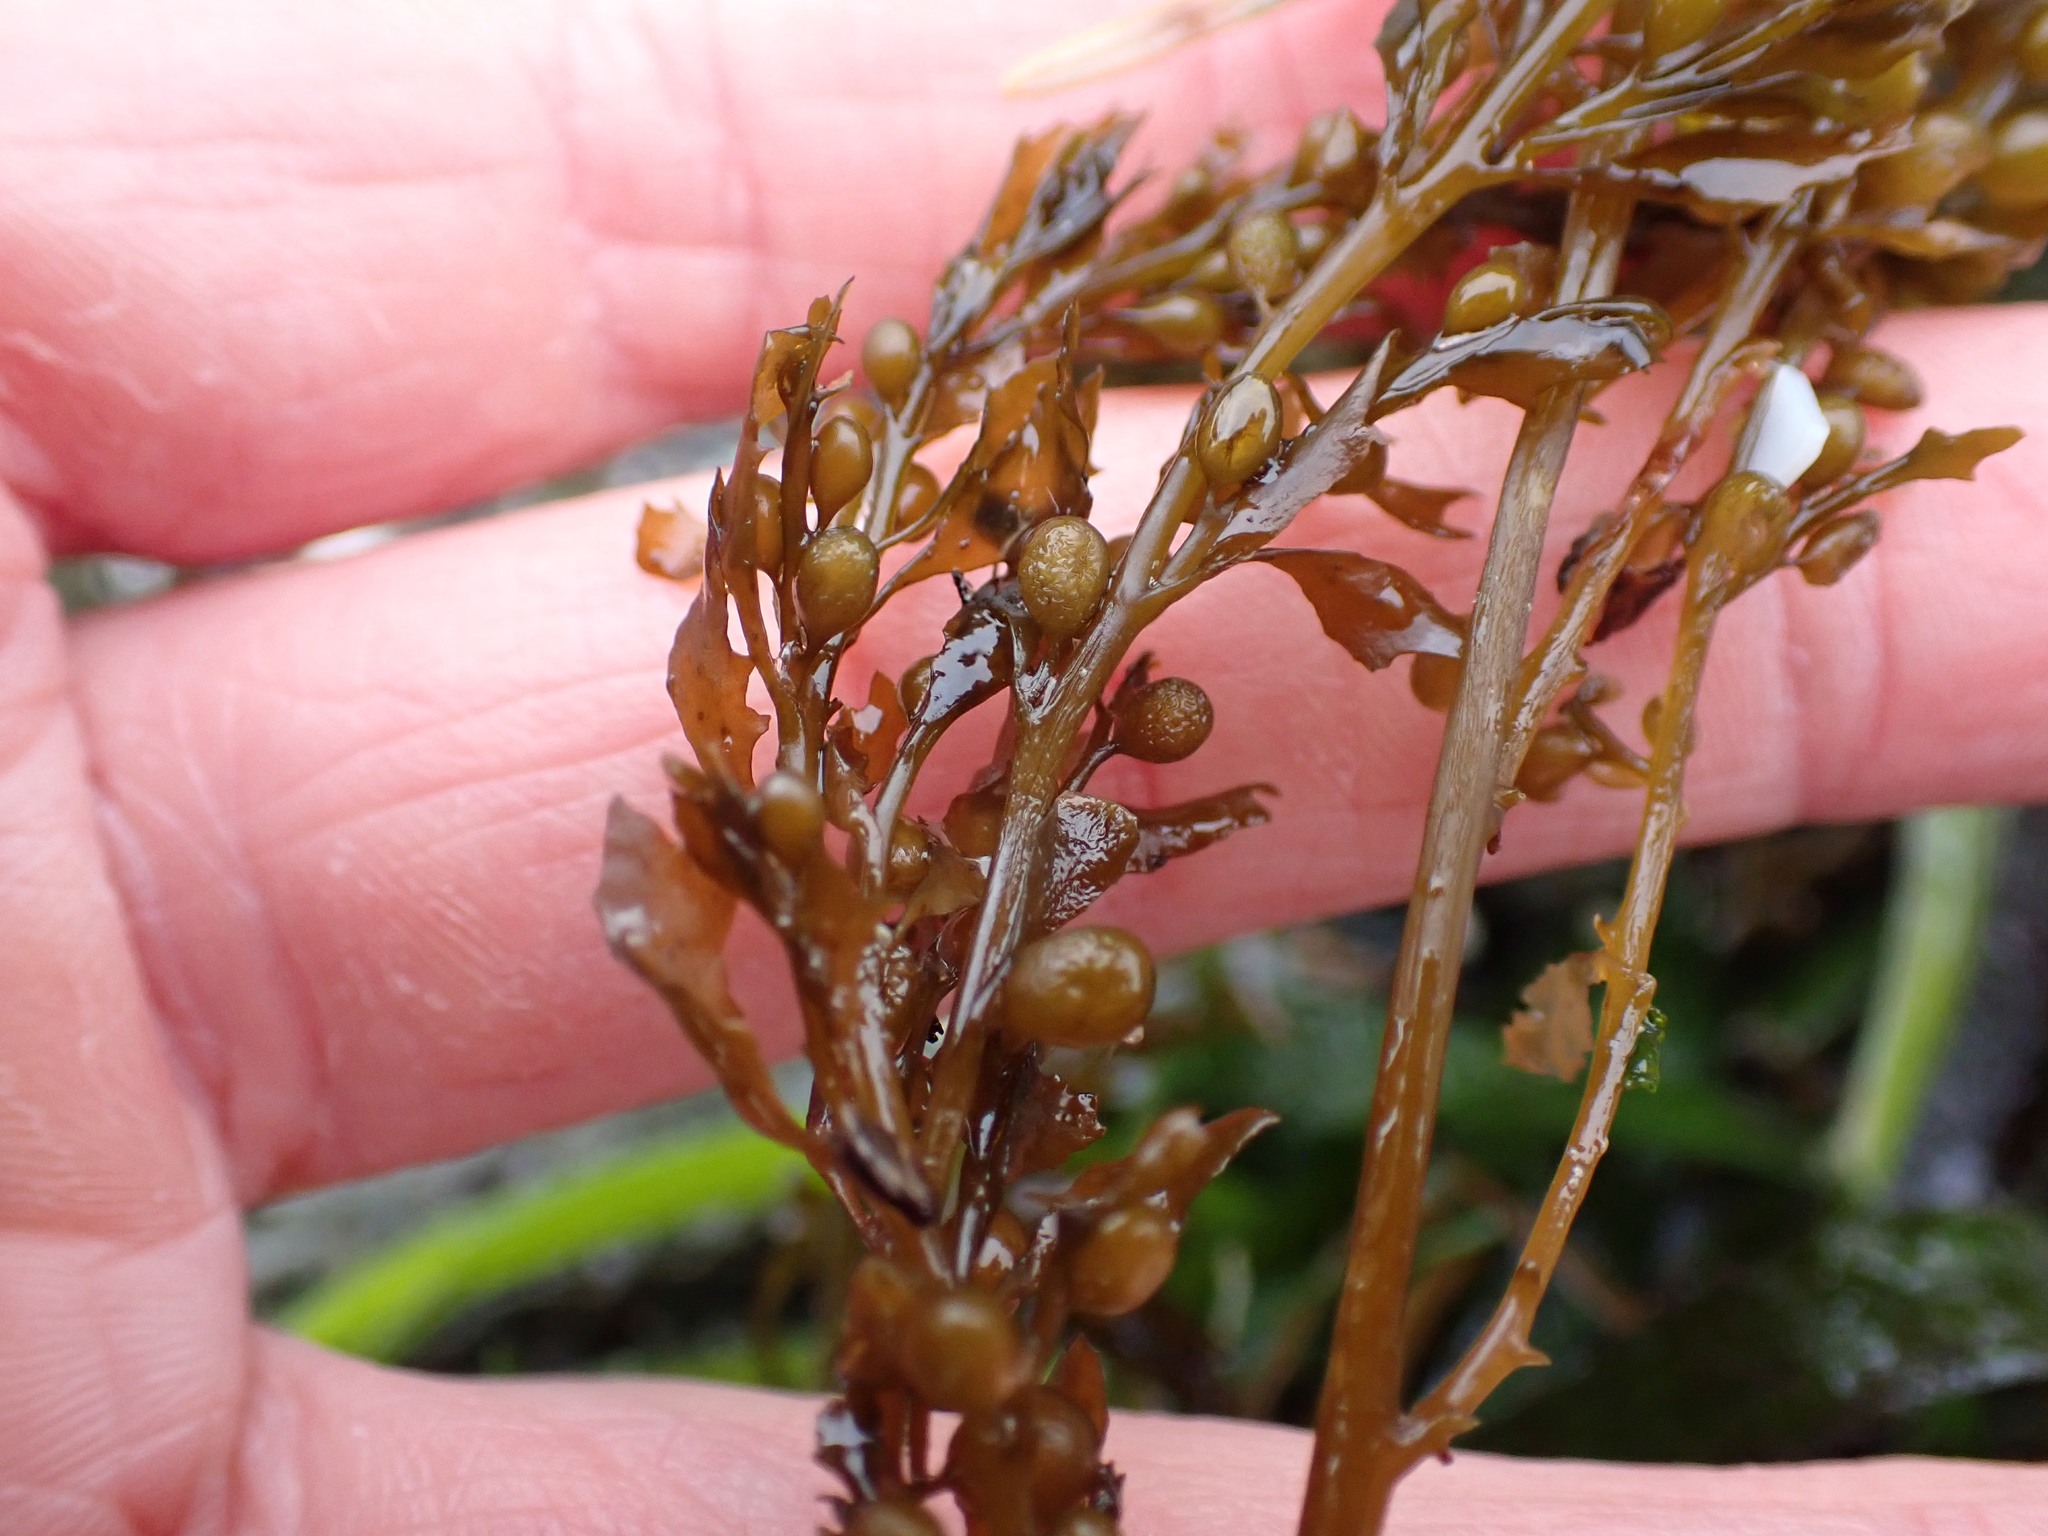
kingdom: Chromista
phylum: Ochrophyta
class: Phaeophyceae
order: Fucales
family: Sargassaceae
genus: Sargassum
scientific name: Sargassum muticum
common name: Japweed
